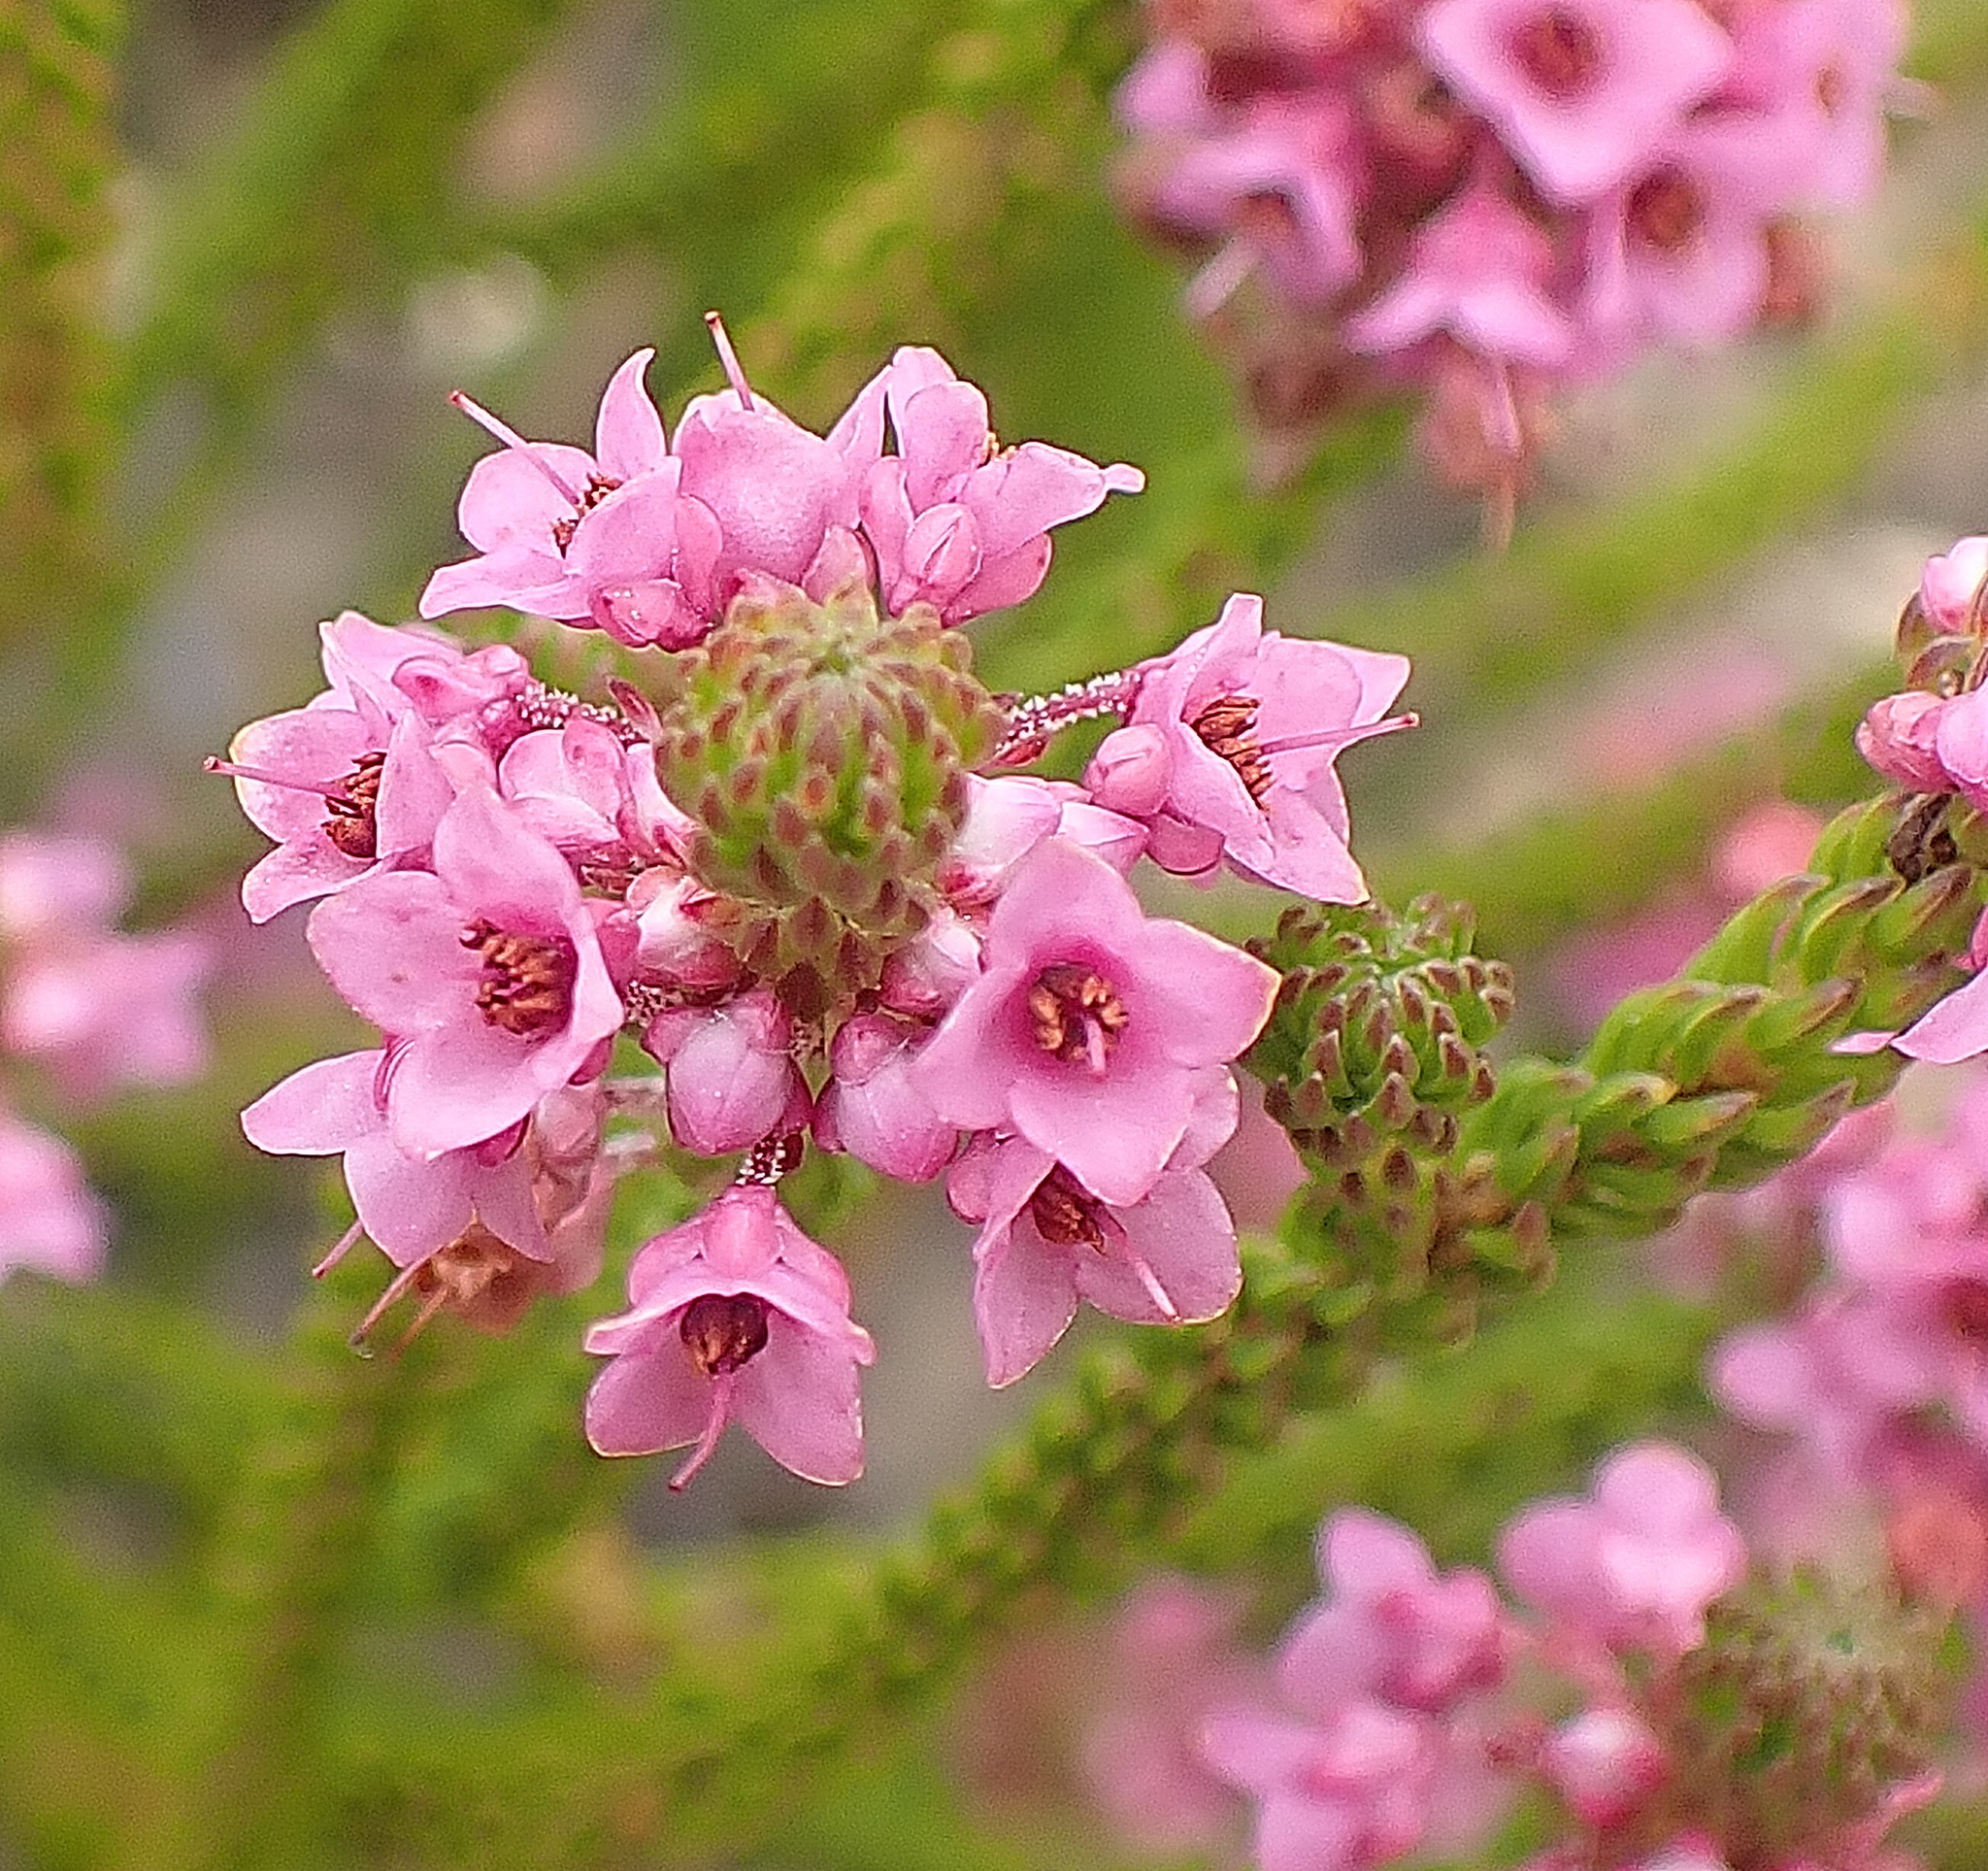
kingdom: Plantae
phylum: Tracheophyta
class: Magnoliopsida
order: Ericales
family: Ericaceae
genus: Erica
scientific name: Erica seriphiifolia
